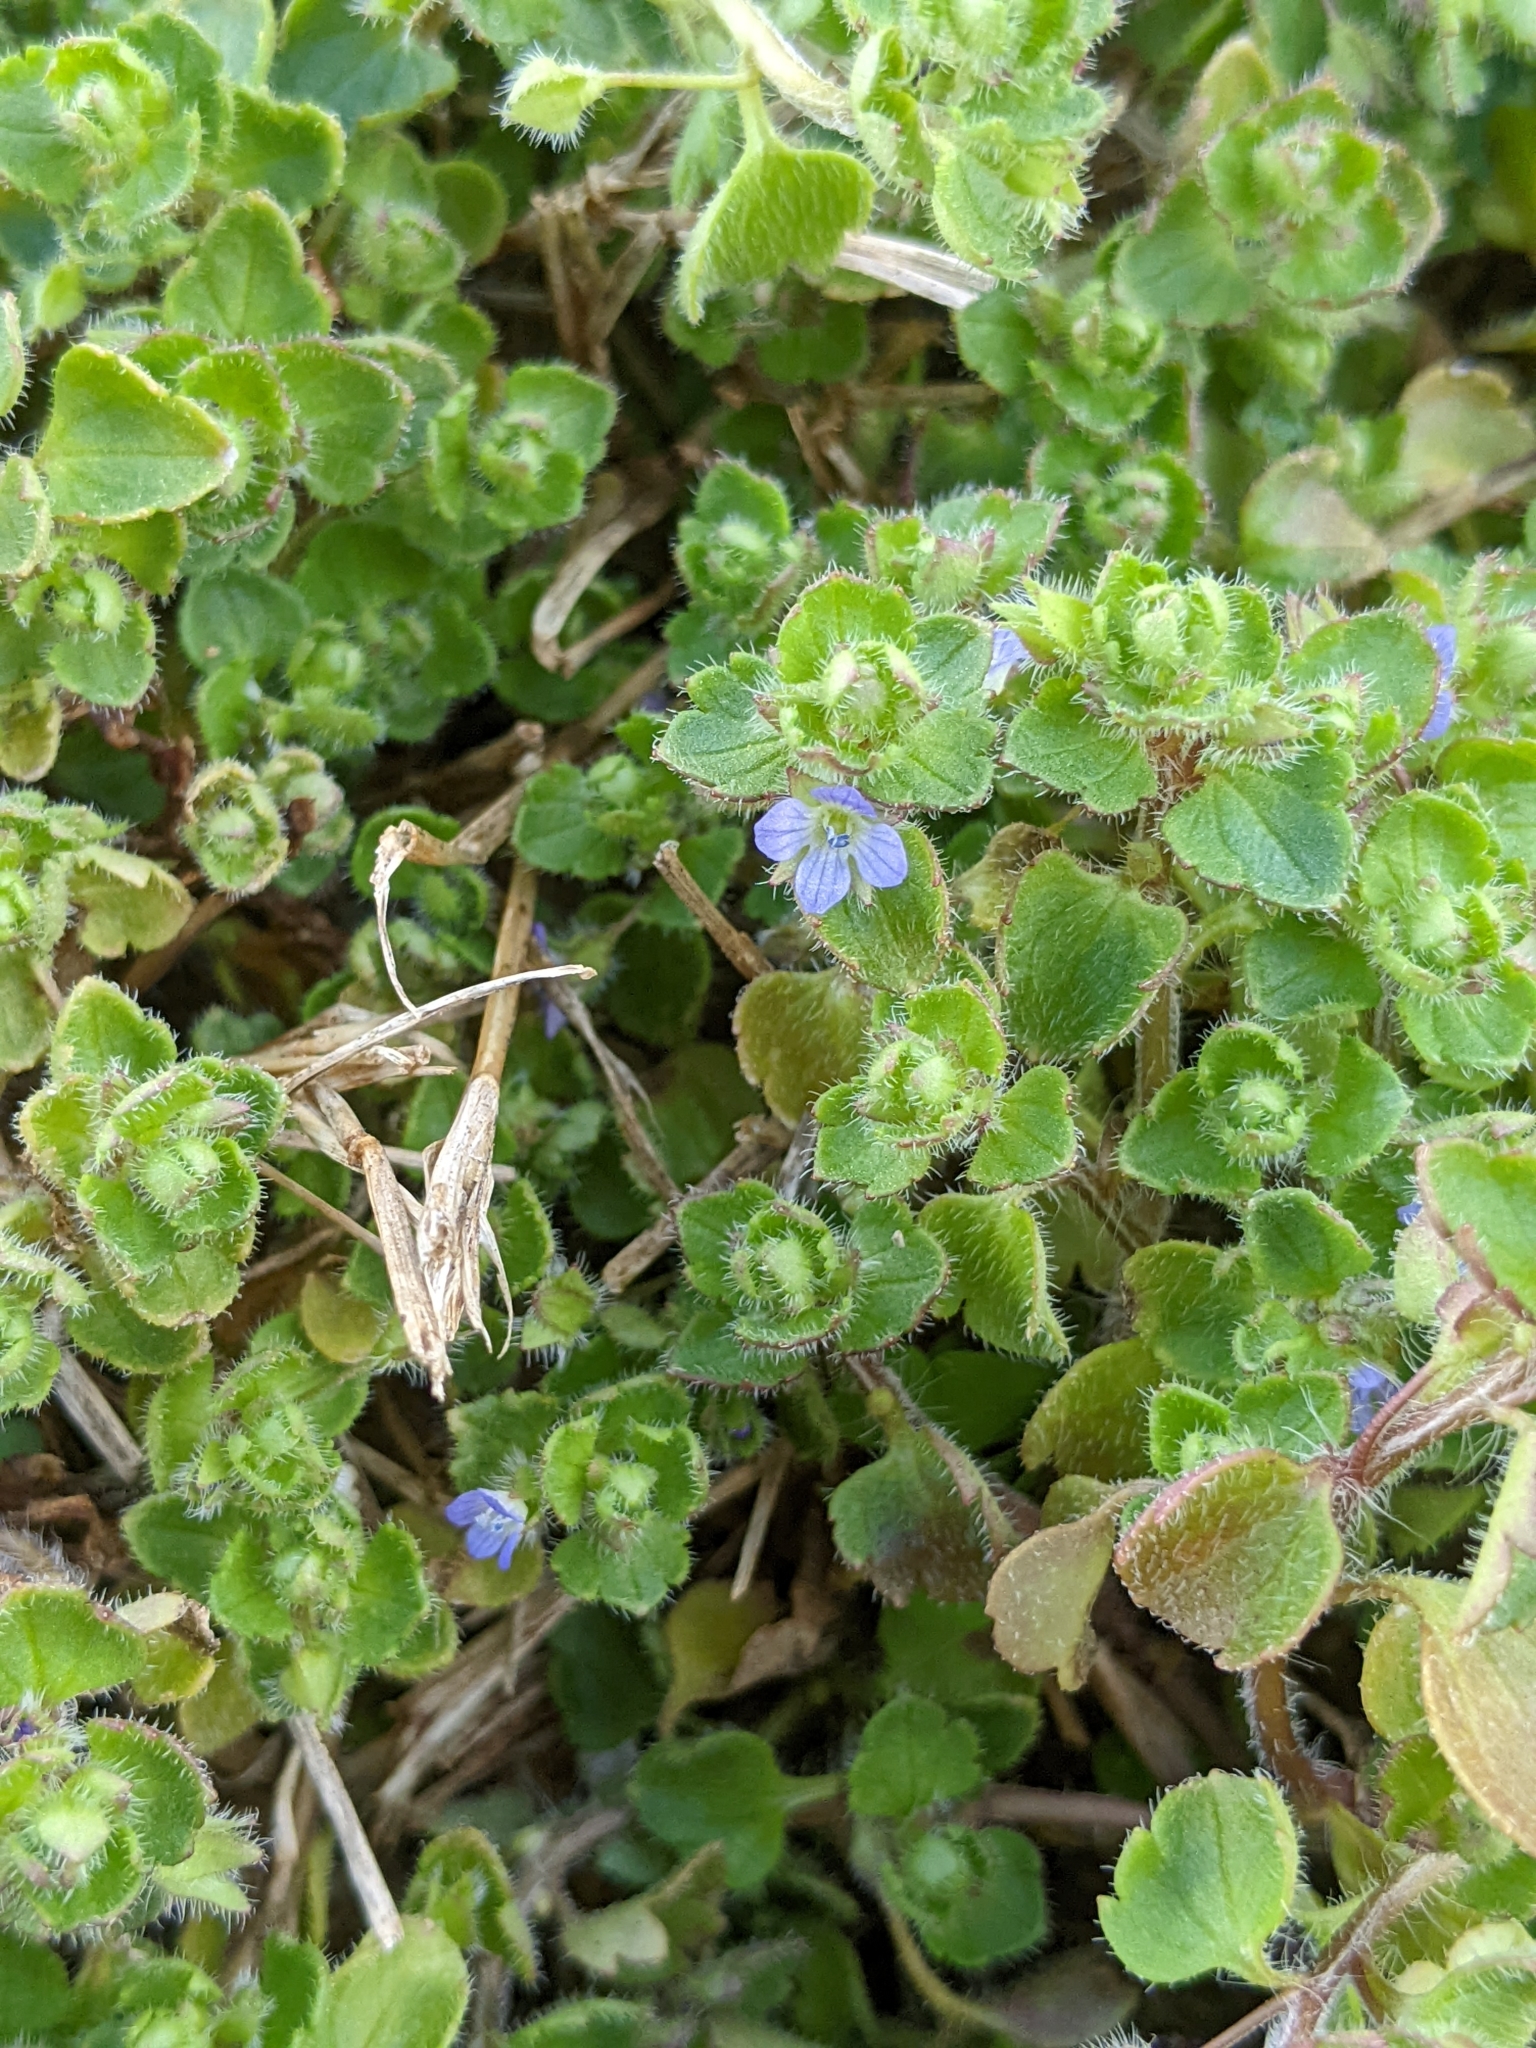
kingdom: Plantae
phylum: Tracheophyta
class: Magnoliopsida
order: Lamiales
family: Plantaginaceae
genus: Veronica
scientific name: Veronica hederifolia
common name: Ivy-leaved speedwell
